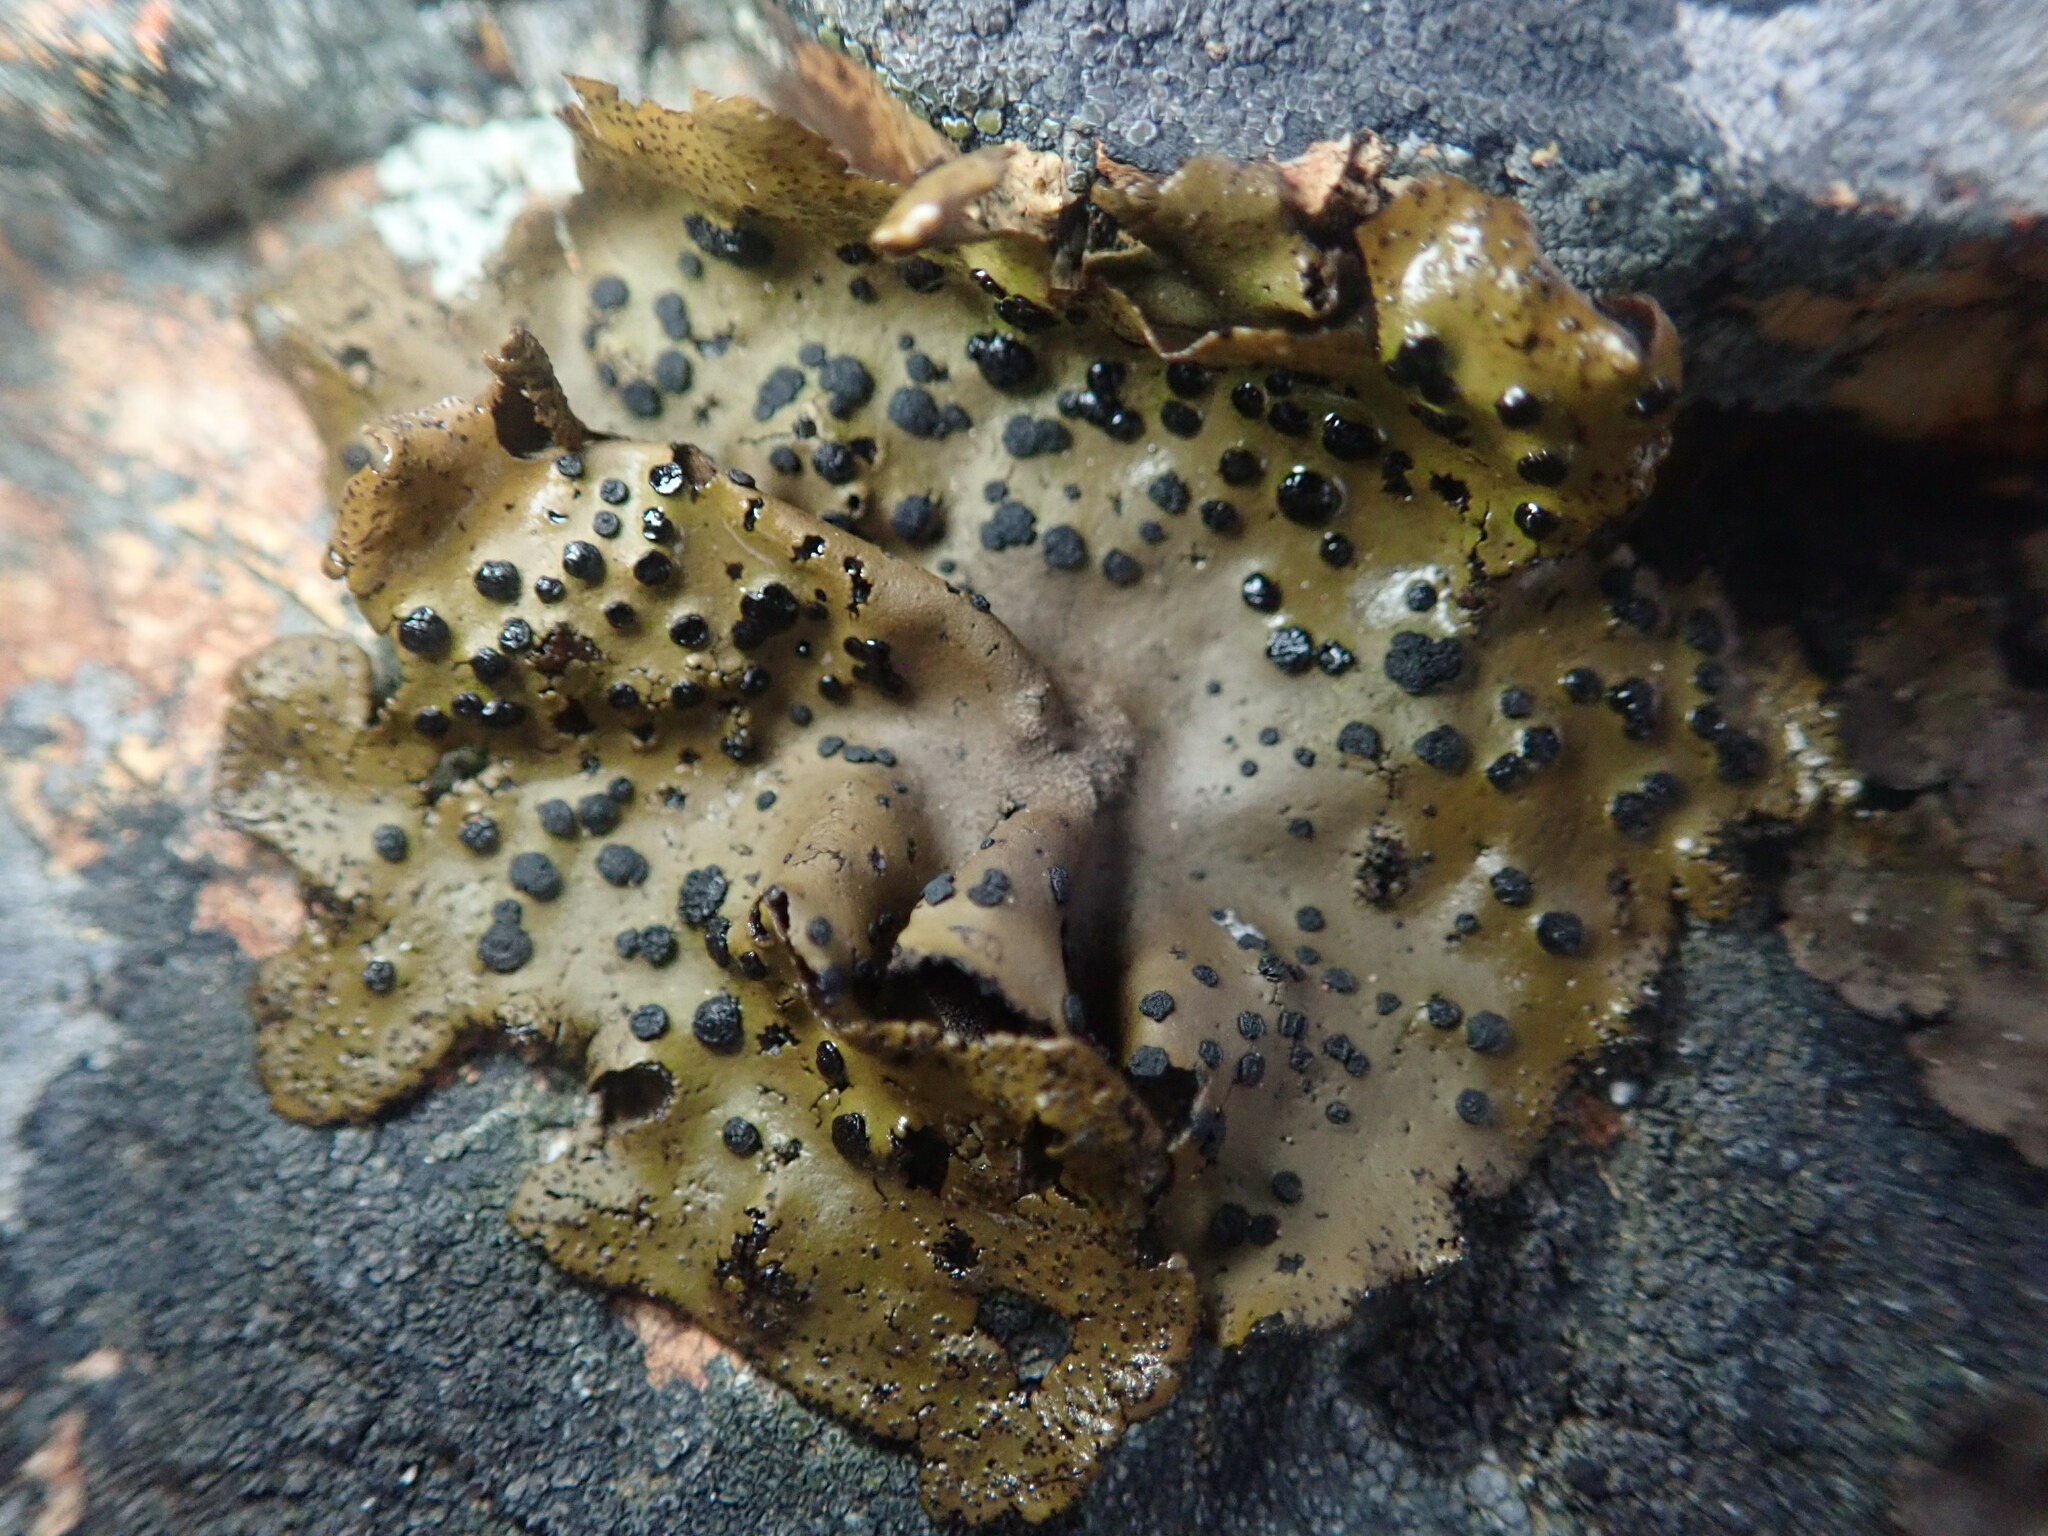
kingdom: Fungi
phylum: Ascomycota
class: Lecanoromycetes
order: Umbilicariales
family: Umbilicariaceae
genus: Umbilicaria
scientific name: Umbilicaria phaea
